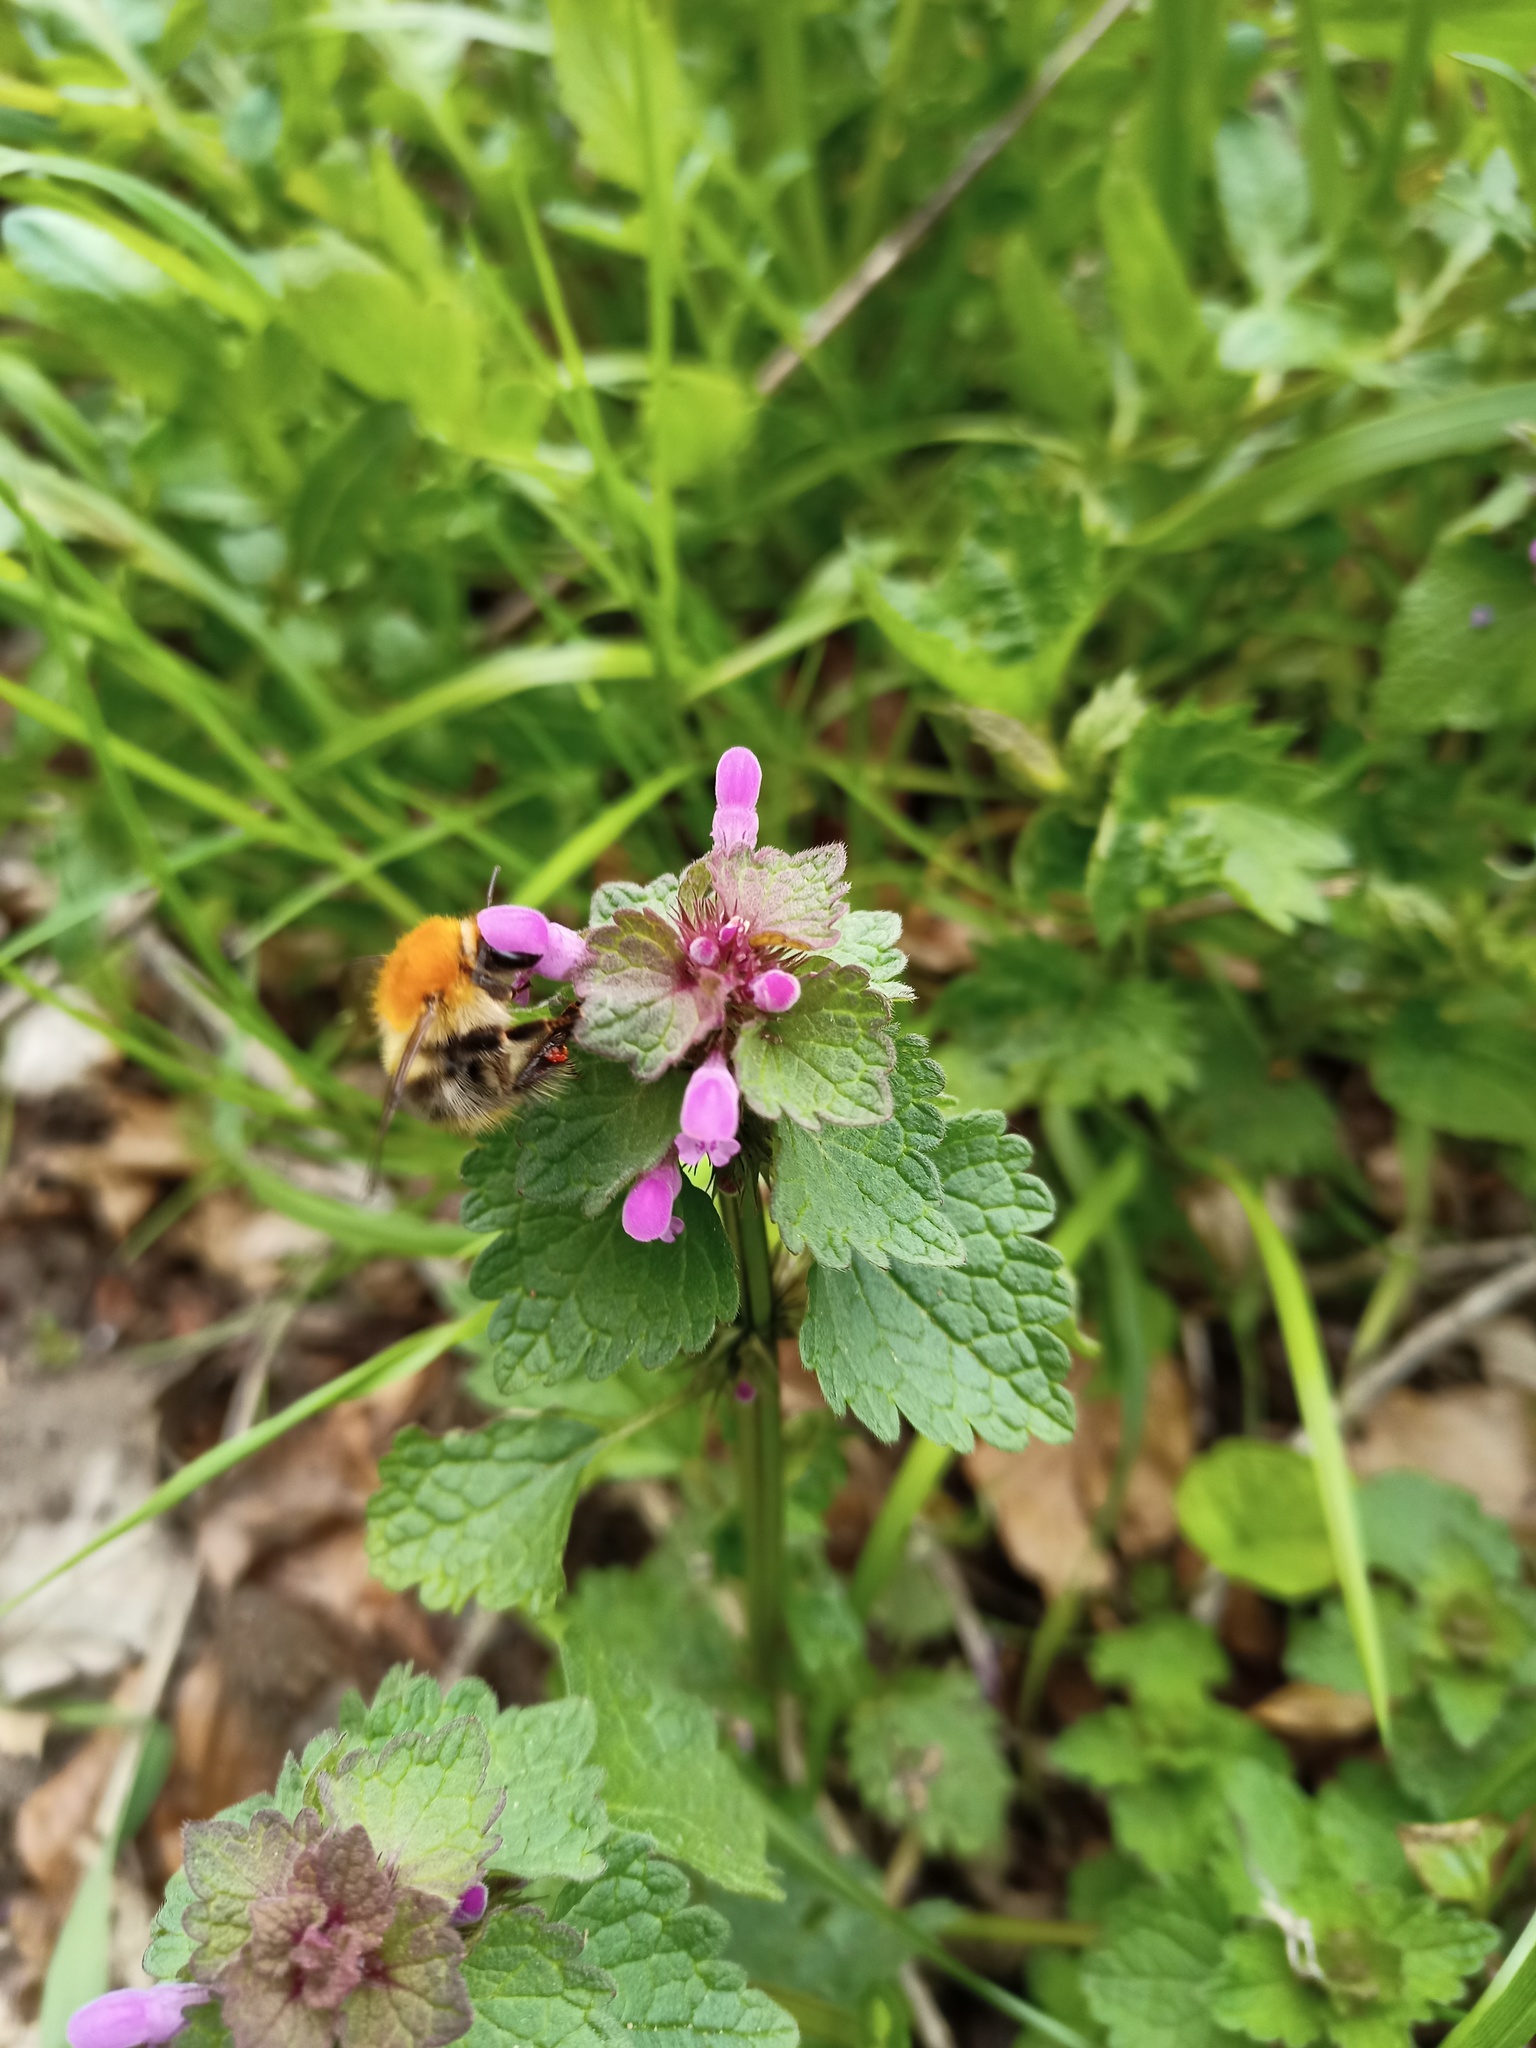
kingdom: Animalia
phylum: Arthropoda
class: Insecta
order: Hymenoptera
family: Apidae
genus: Bombus
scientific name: Bombus pascuorum
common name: Common carder bee
